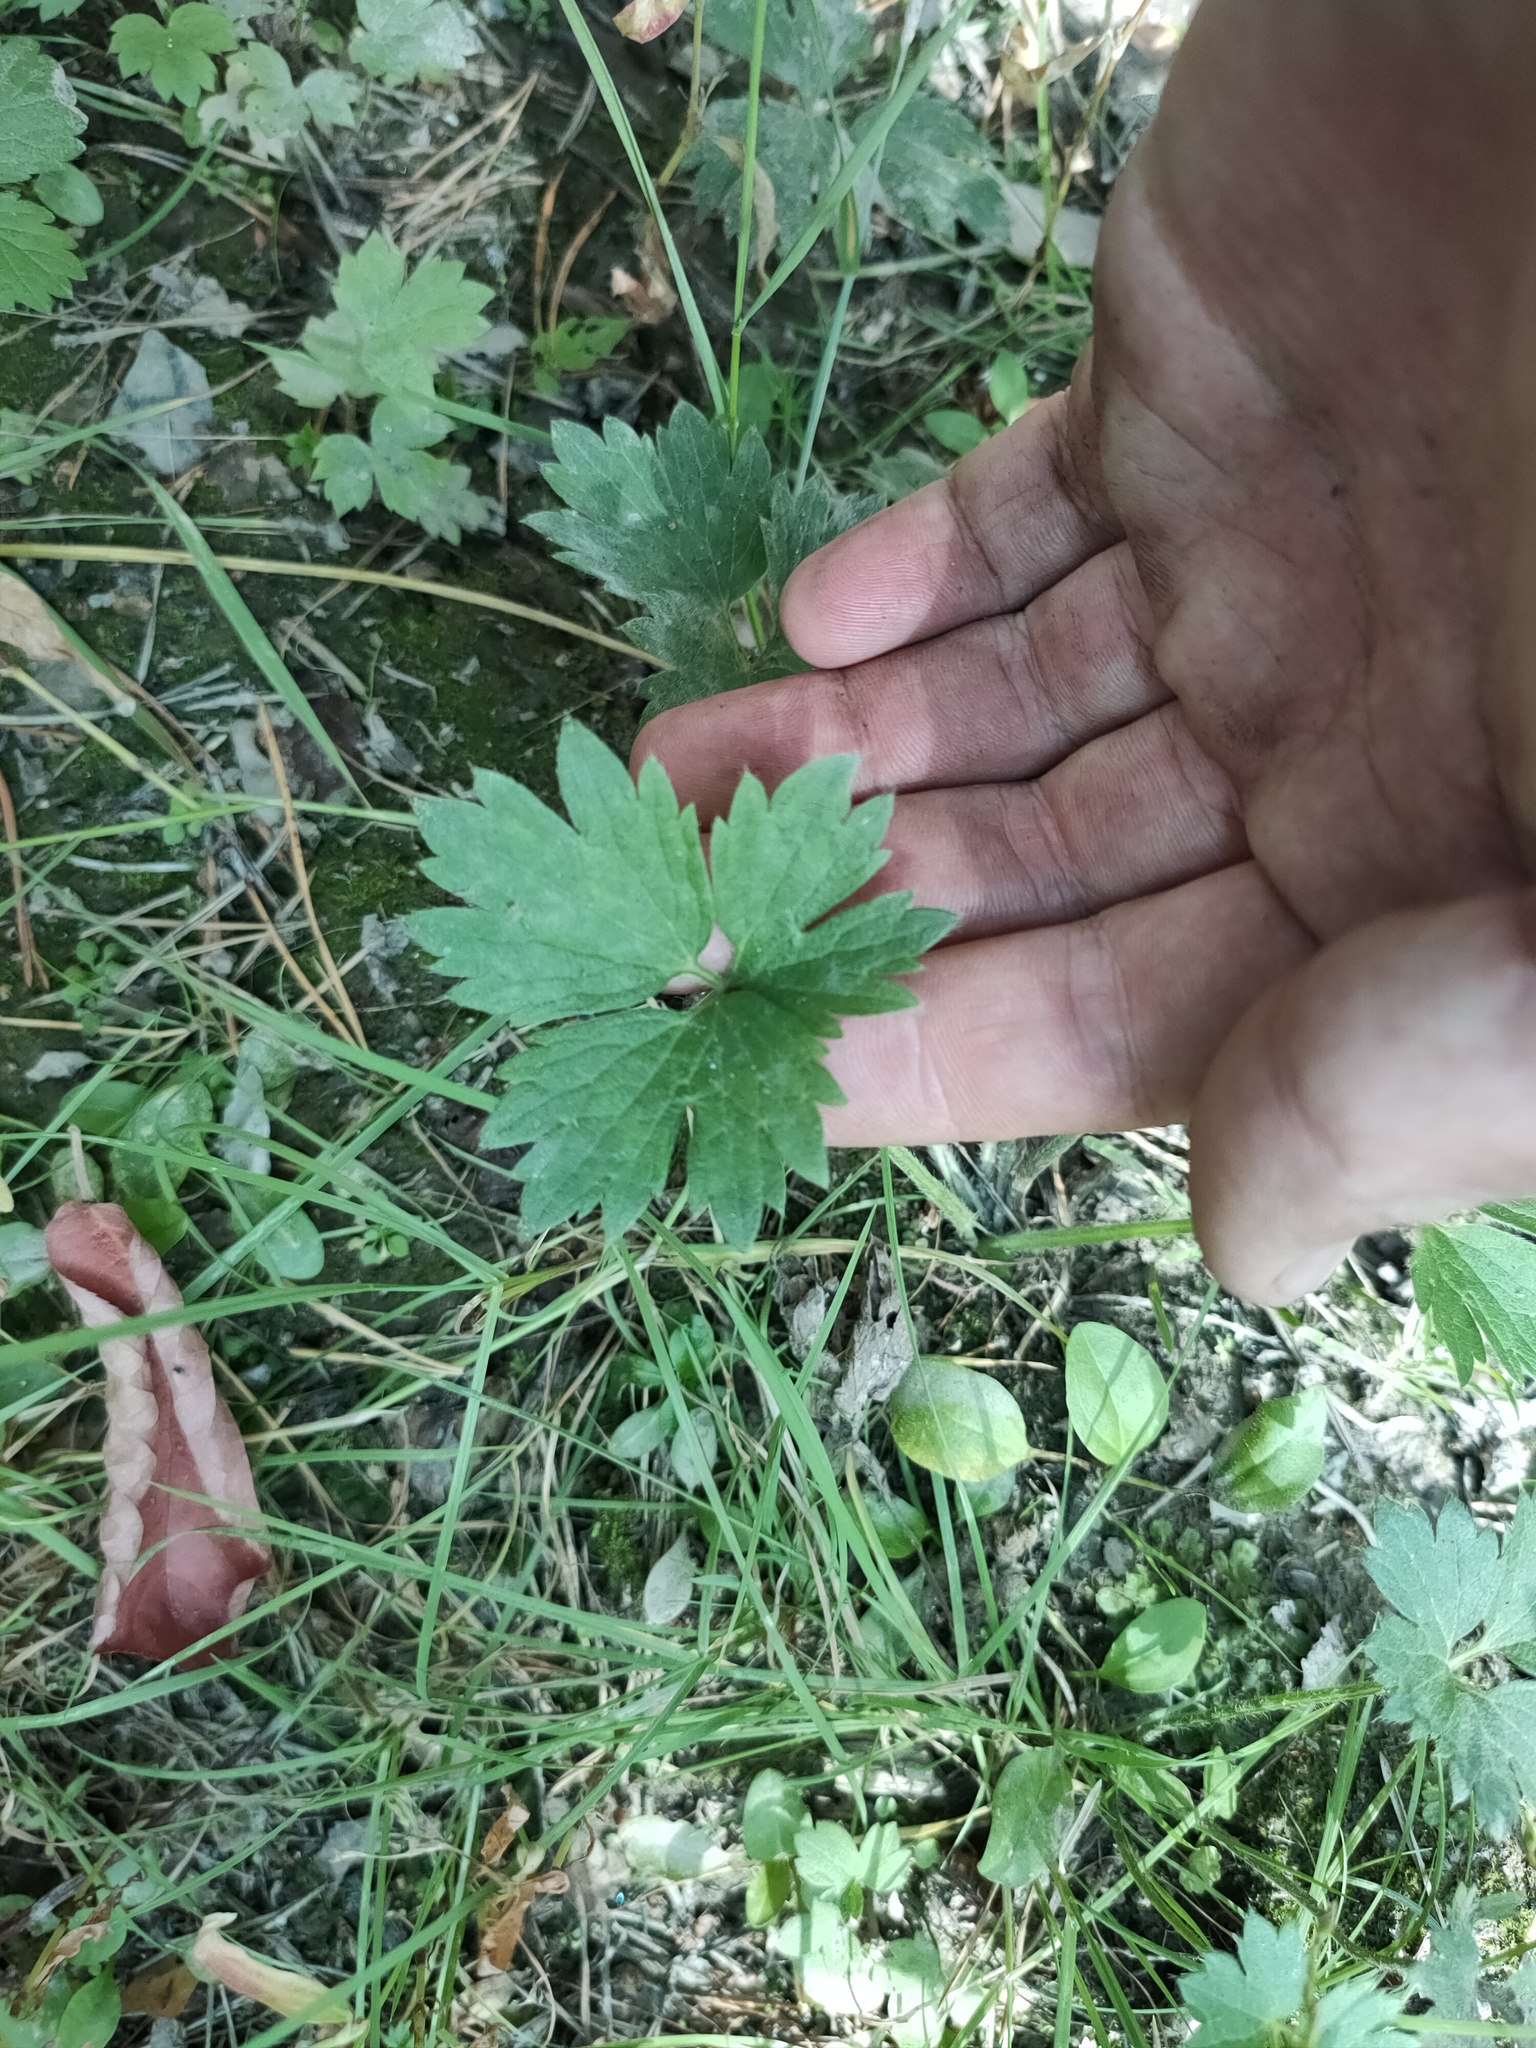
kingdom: Plantae
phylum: Tracheophyta
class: Magnoliopsida
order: Ranunculales
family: Ranunculaceae
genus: Ranunculus
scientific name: Ranunculus repens
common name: Creeping buttercup
